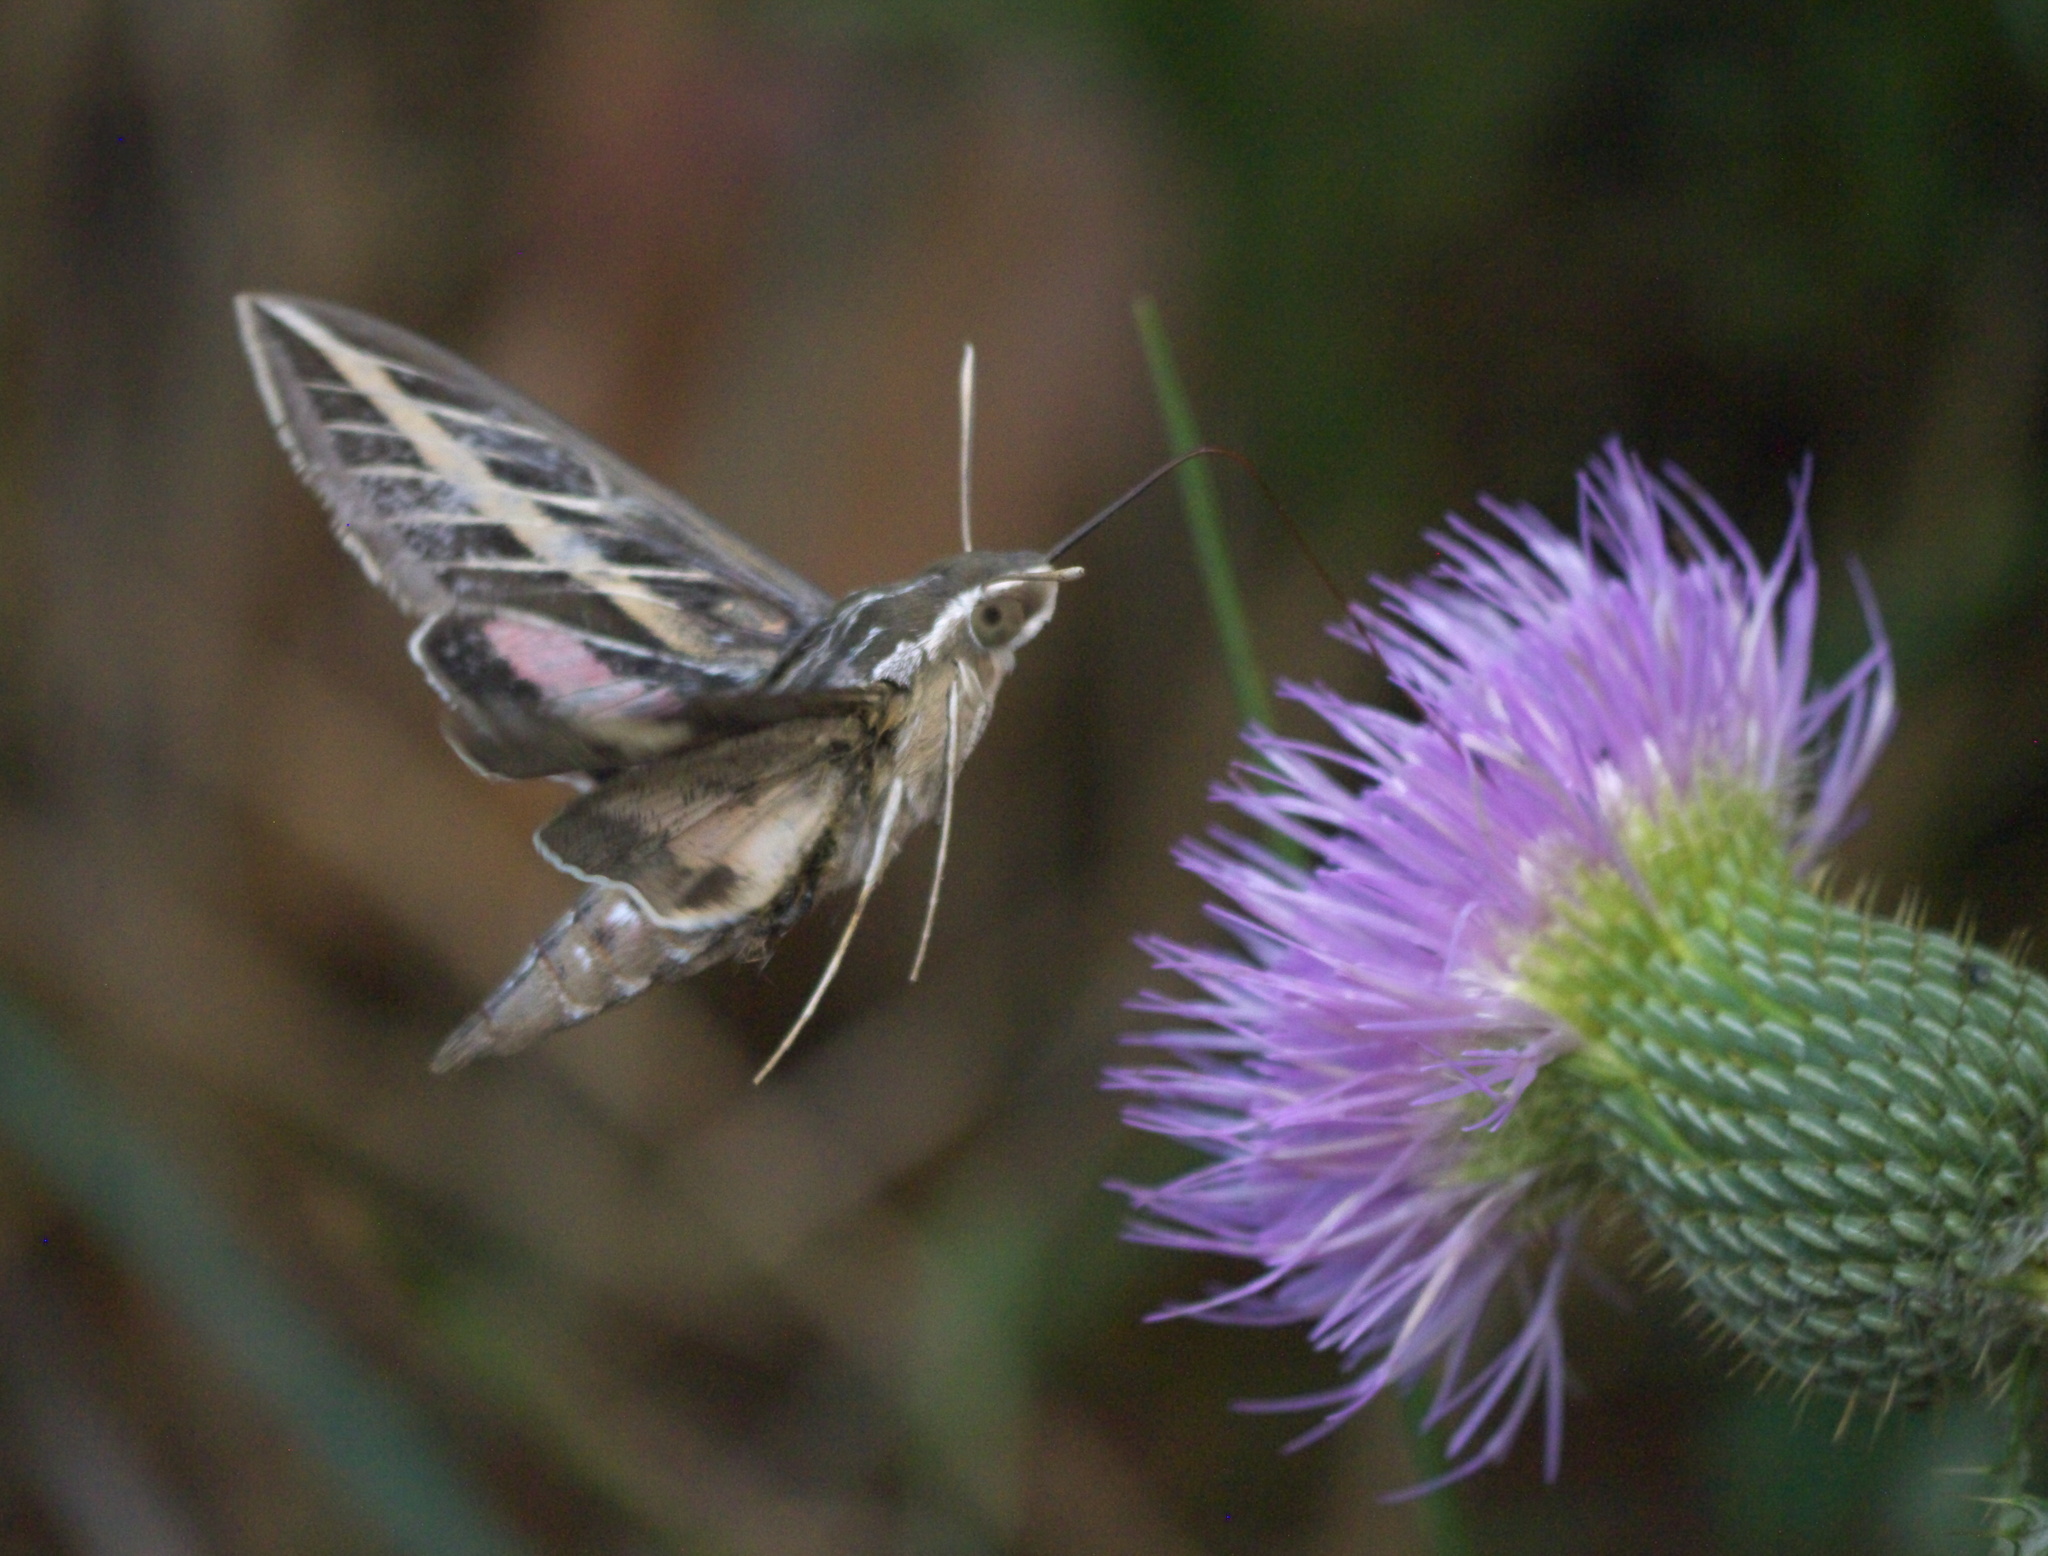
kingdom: Animalia
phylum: Arthropoda
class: Insecta
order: Lepidoptera
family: Sphingidae
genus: Hyles
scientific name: Hyles lineata
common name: White-lined sphinx
